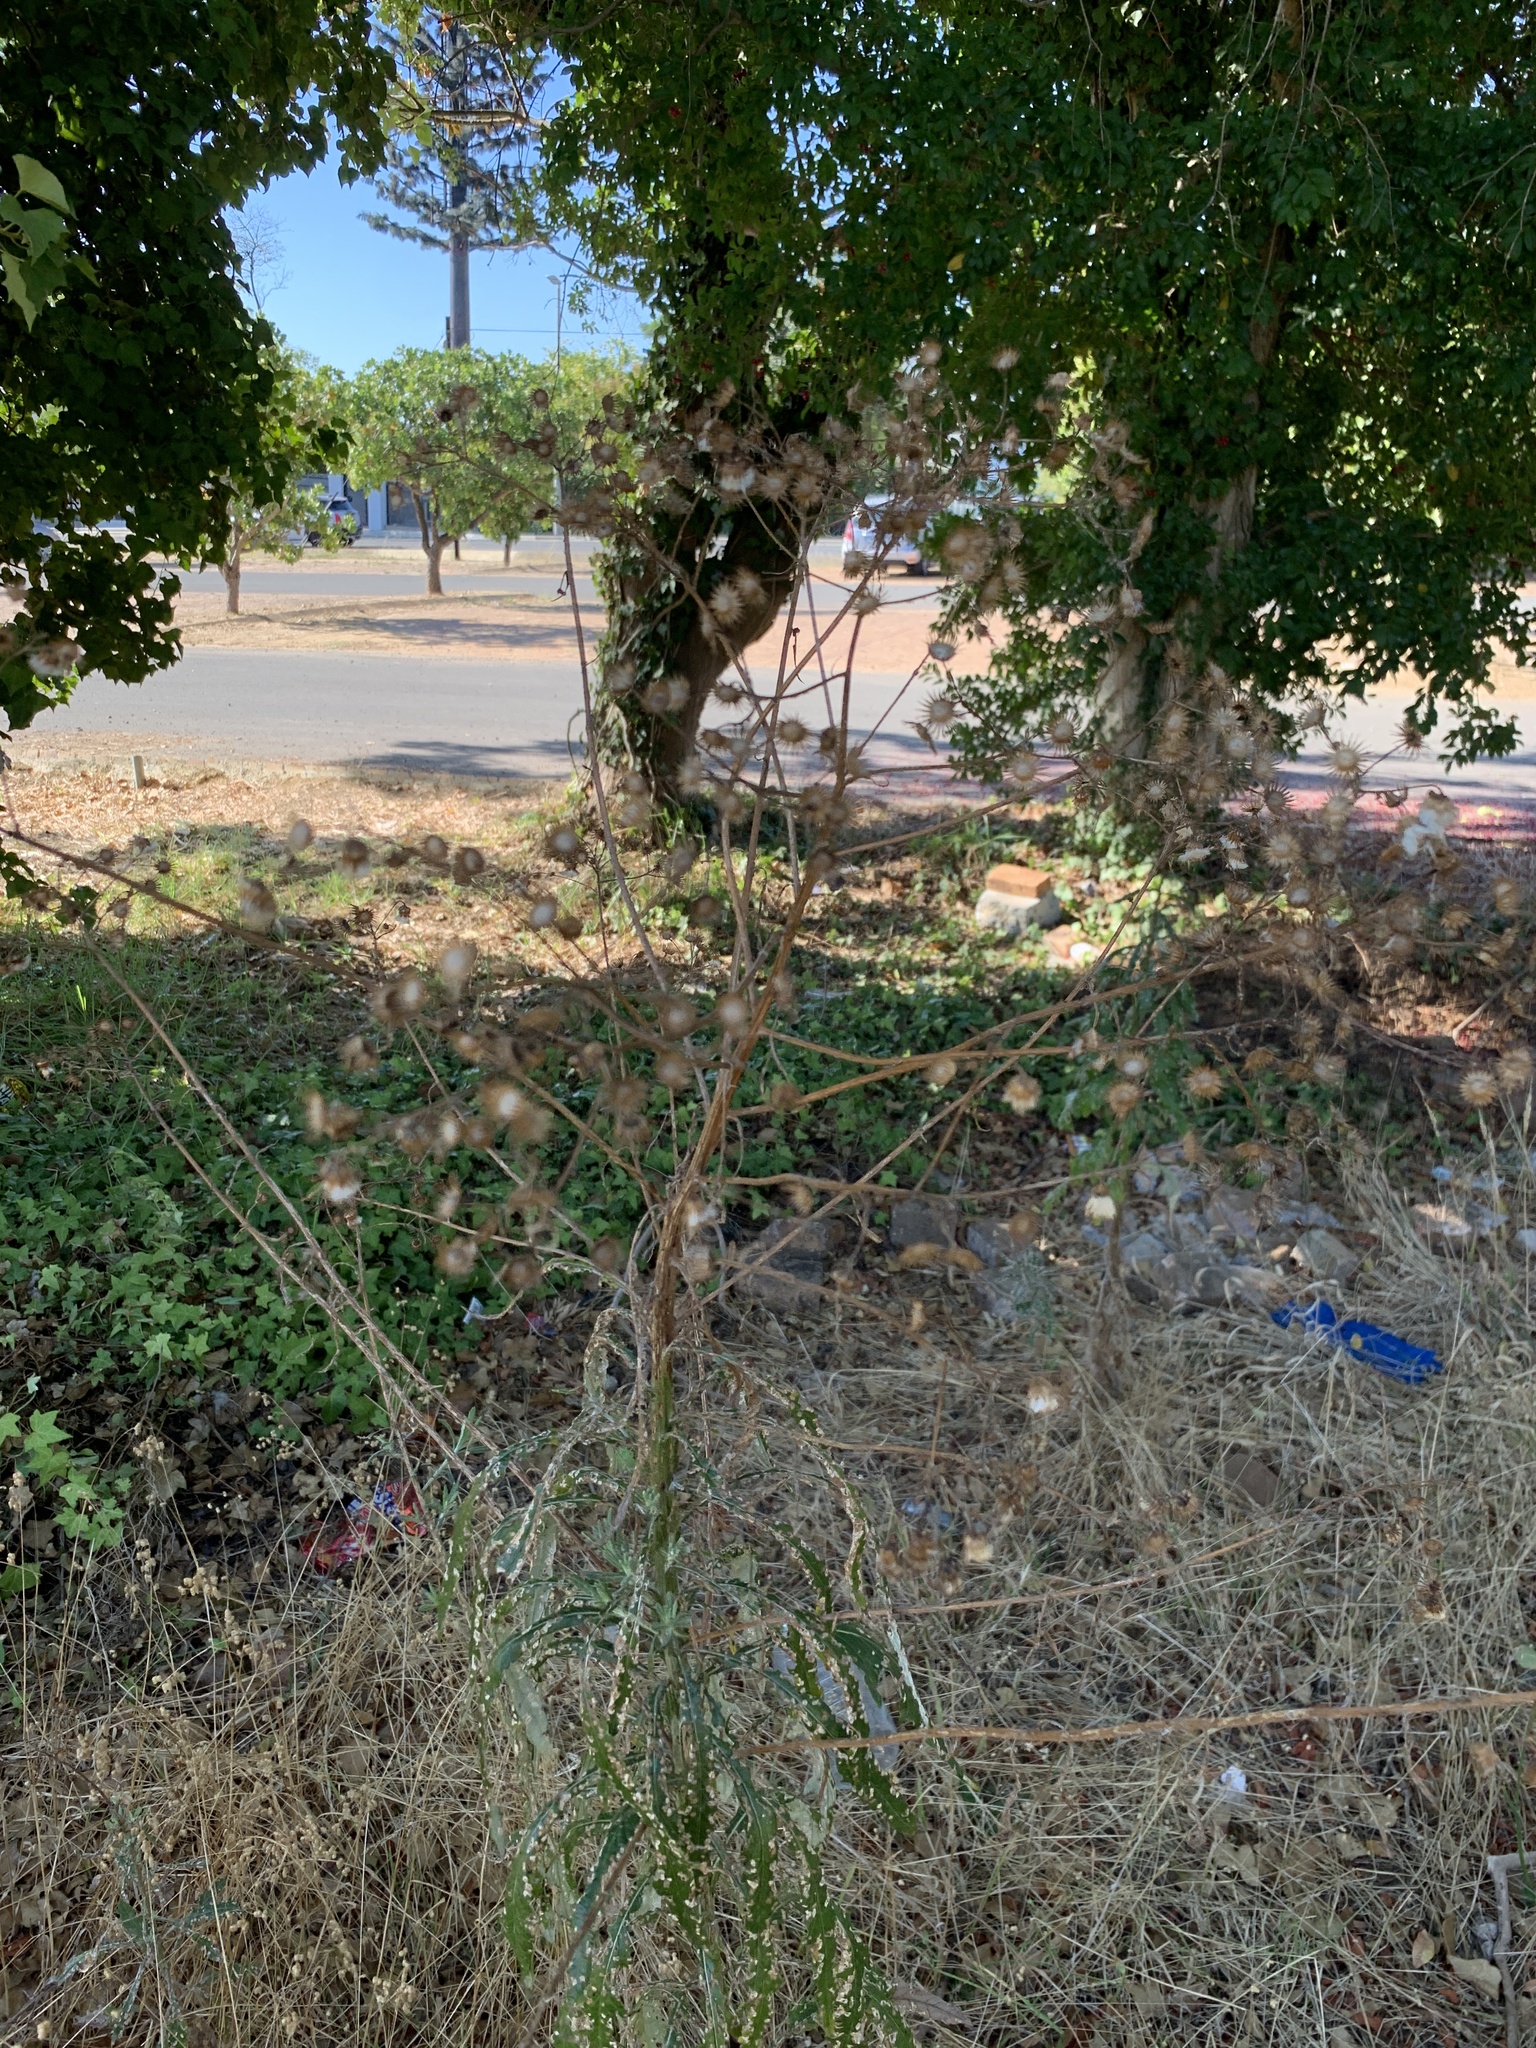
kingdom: Plantae
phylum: Tracheophyta
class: Magnoliopsida
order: Asterales
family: Asteraceae
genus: Senecio
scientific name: Senecio pterophorus
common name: Shoddy ragwort
